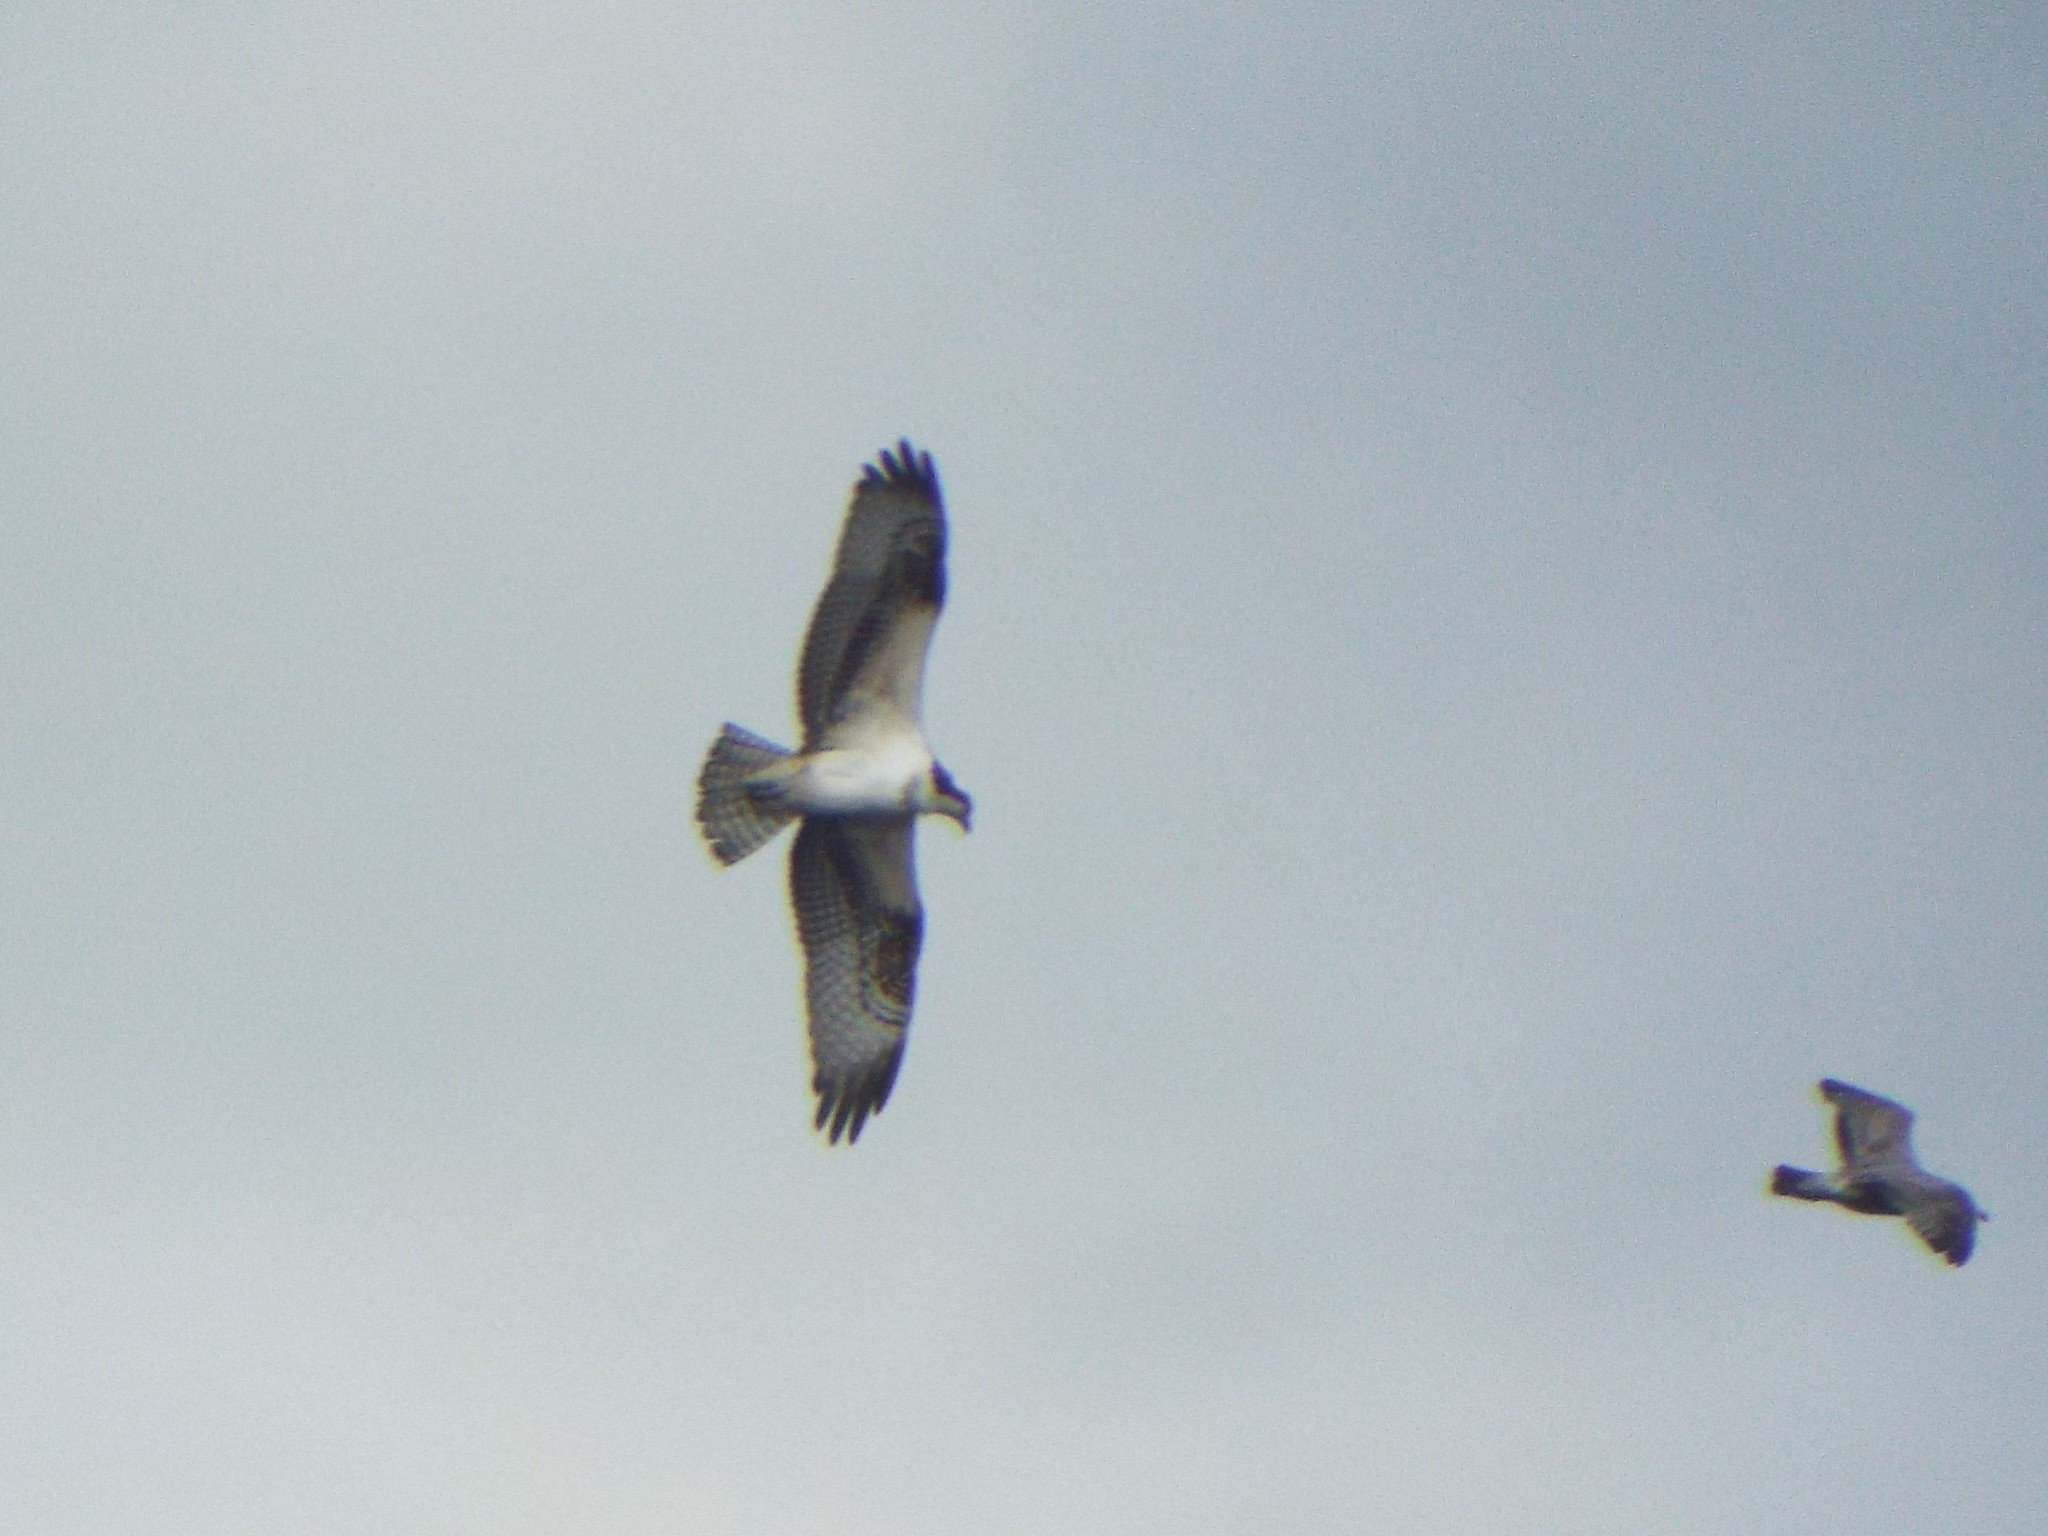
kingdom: Animalia
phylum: Chordata
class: Aves
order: Accipitriformes
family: Pandionidae
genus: Pandion
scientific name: Pandion haliaetus
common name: Osprey
